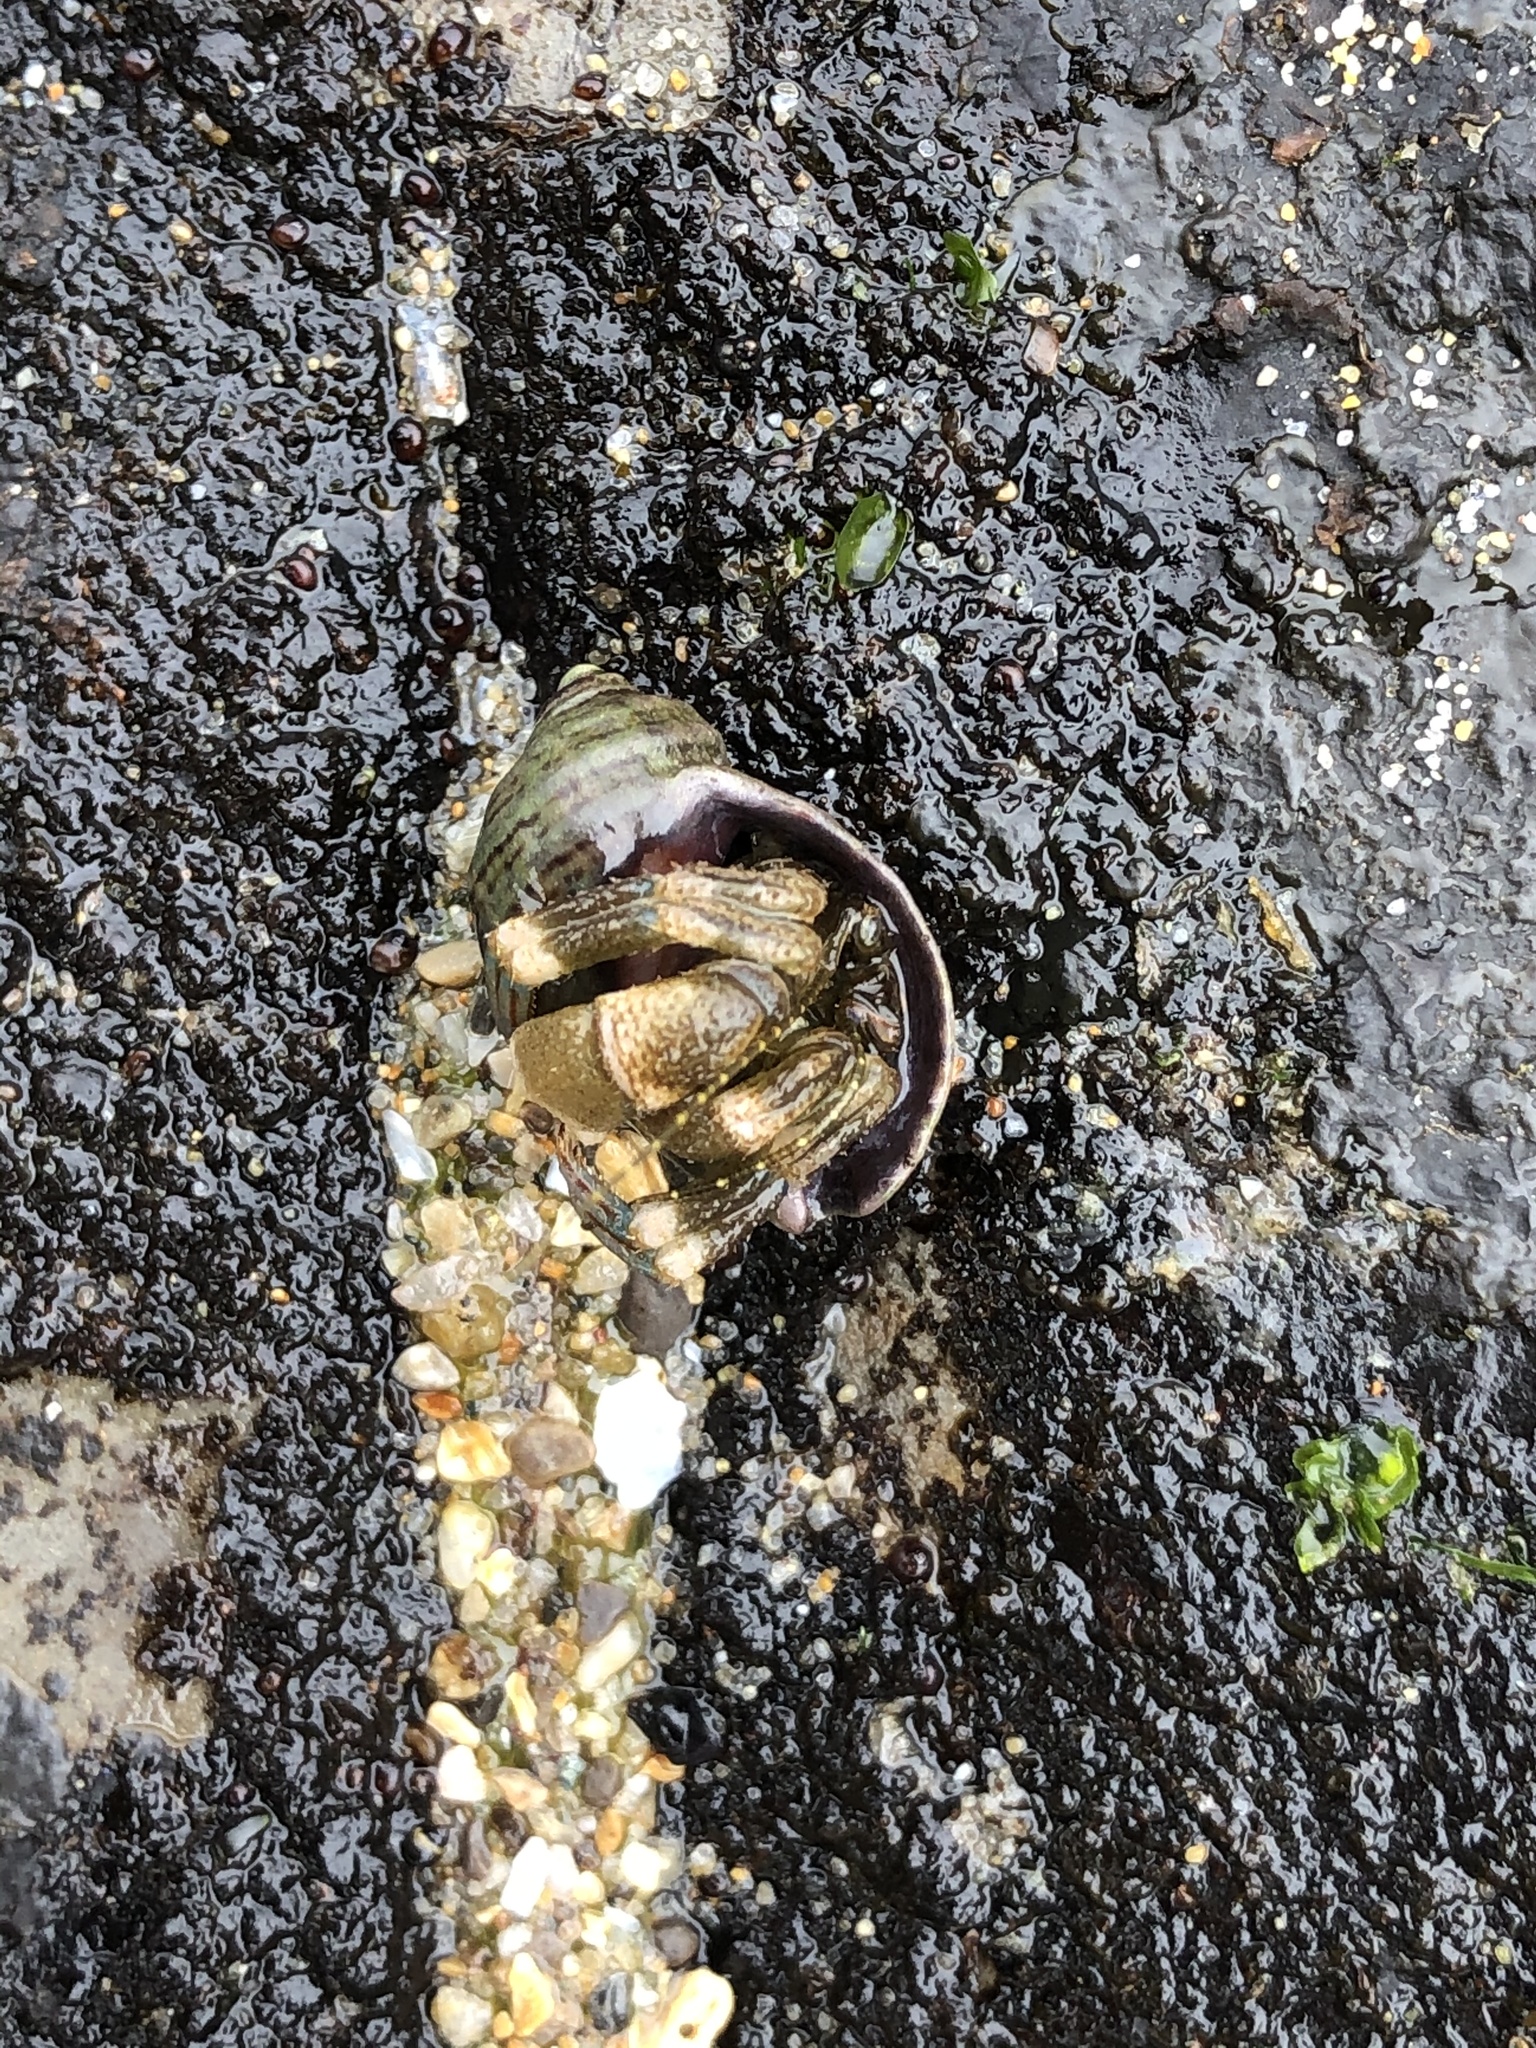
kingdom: Animalia
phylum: Arthropoda
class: Malacostraca
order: Decapoda
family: Paguridae
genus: Pagurus
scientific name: Pagurus hirsutiusculus
